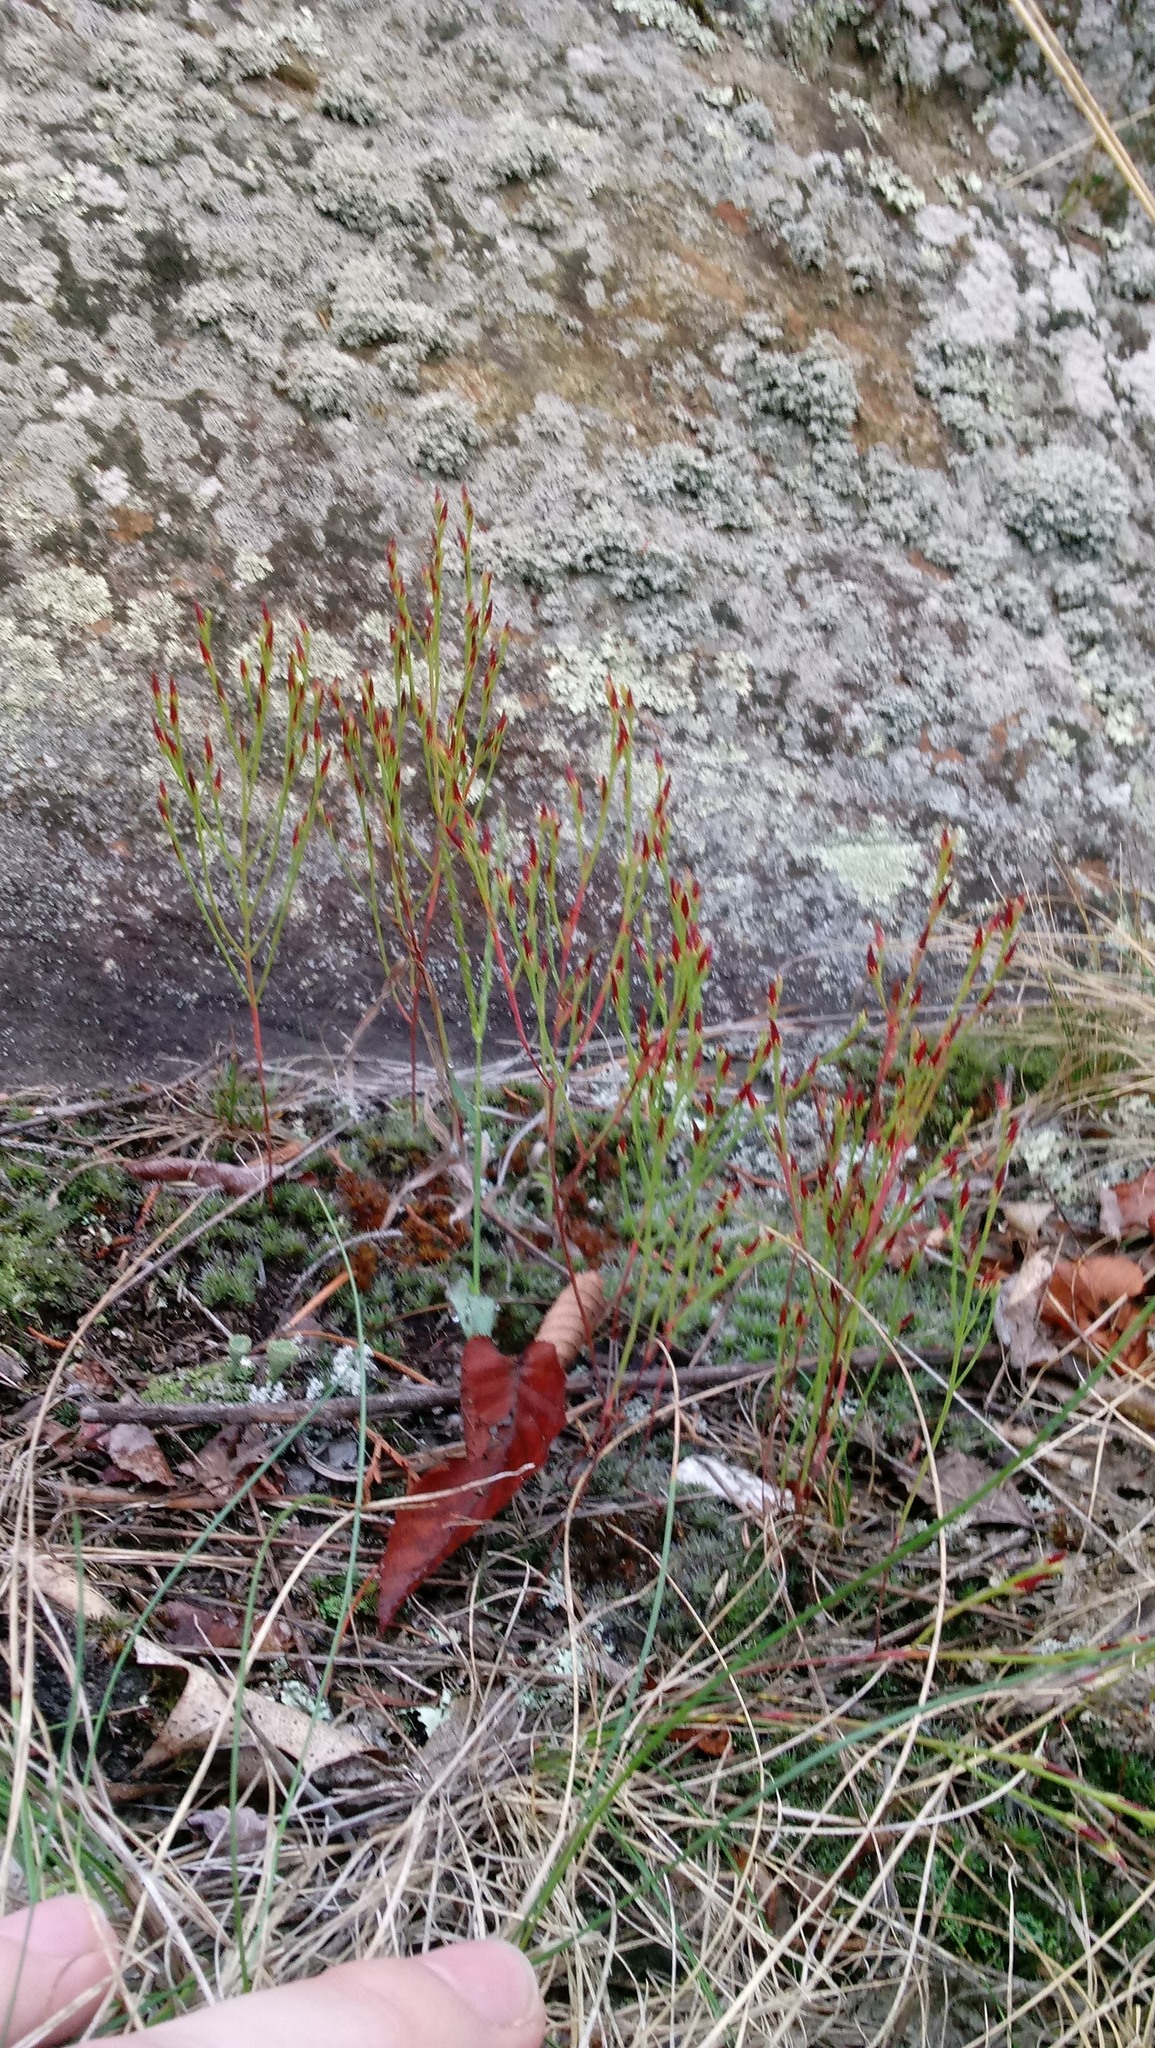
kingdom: Plantae
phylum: Tracheophyta
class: Magnoliopsida
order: Malpighiales
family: Hypericaceae
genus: Hypericum
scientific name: Hypericum gentianoides
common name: Gentian-leaved st. john's-wort
